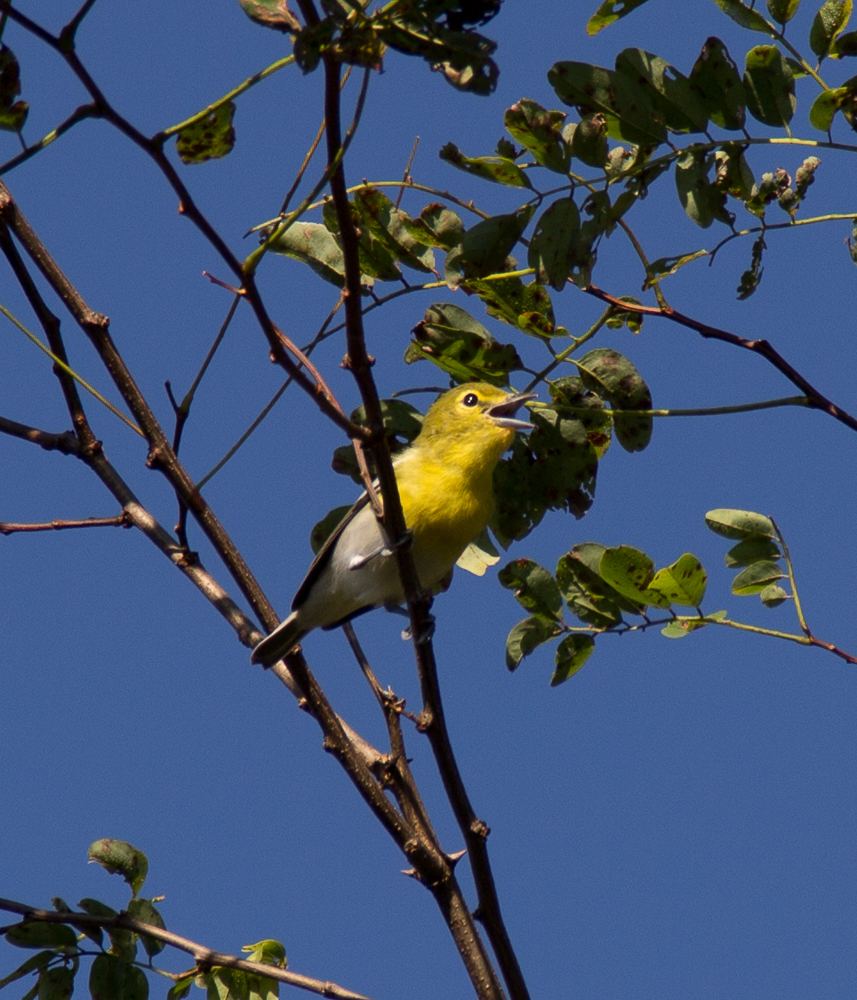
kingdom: Animalia
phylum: Chordata
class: Aves
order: Passeriformes
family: Vireonidae
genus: Vireo
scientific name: Vireo flavifrons
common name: Yellow-throated vireo
